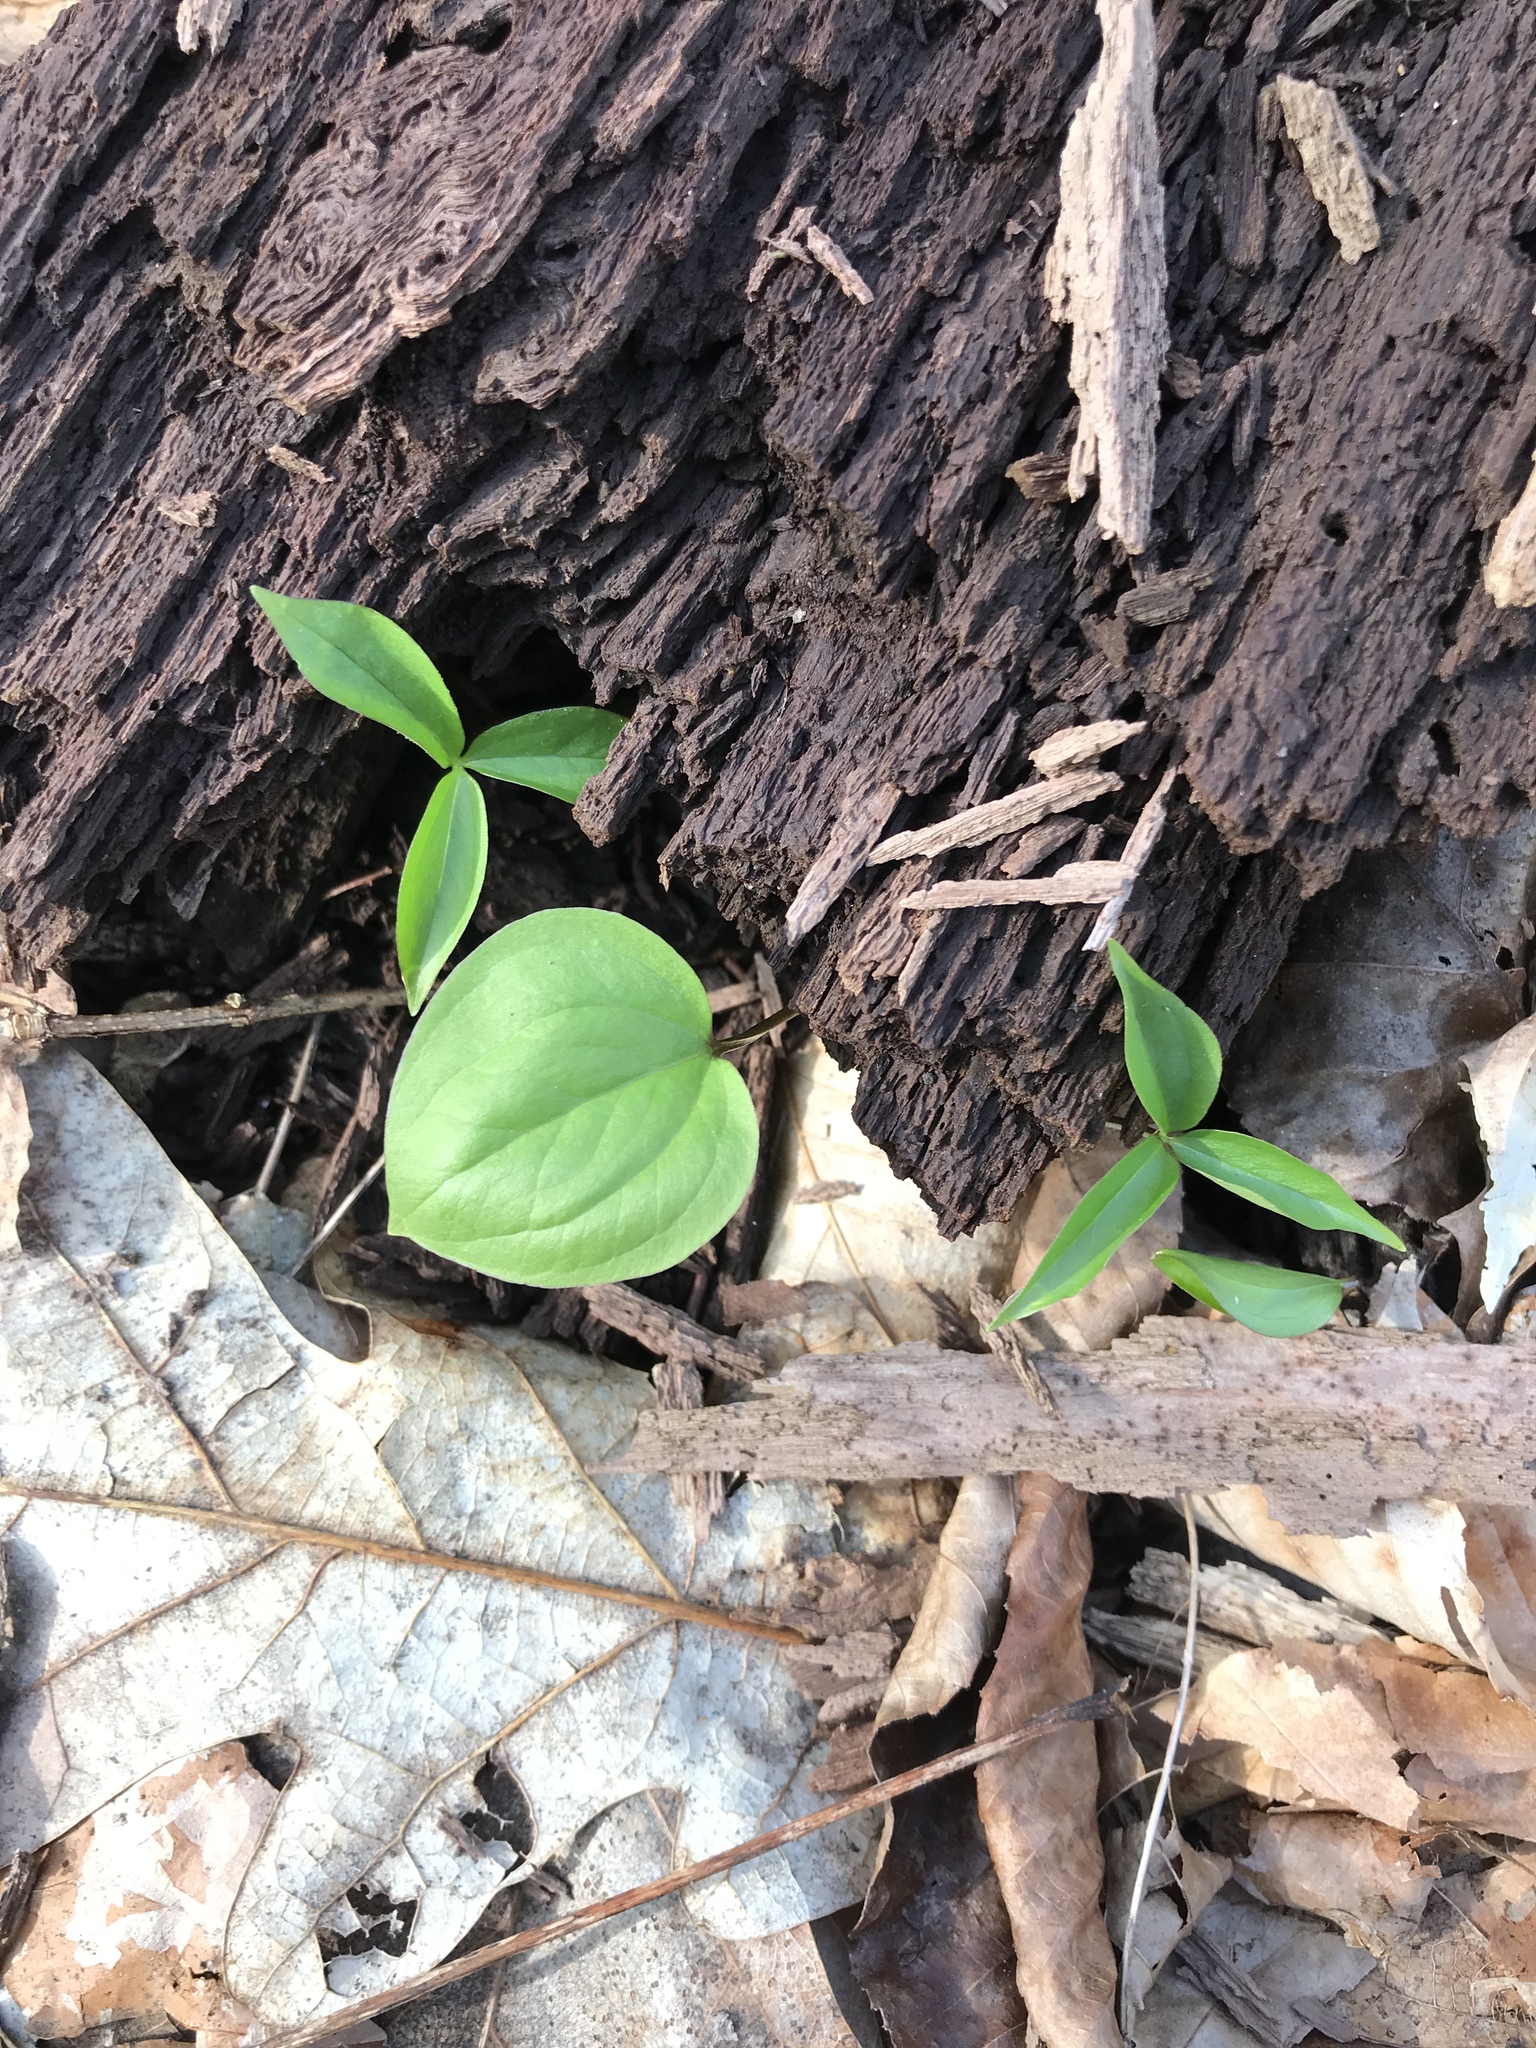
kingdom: Plantae
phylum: Tracheophyta
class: Liliopsida
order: Liliales
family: Melanthiaceae
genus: Trillium
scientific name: Trillium grandiflorum
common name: Great white trillium
